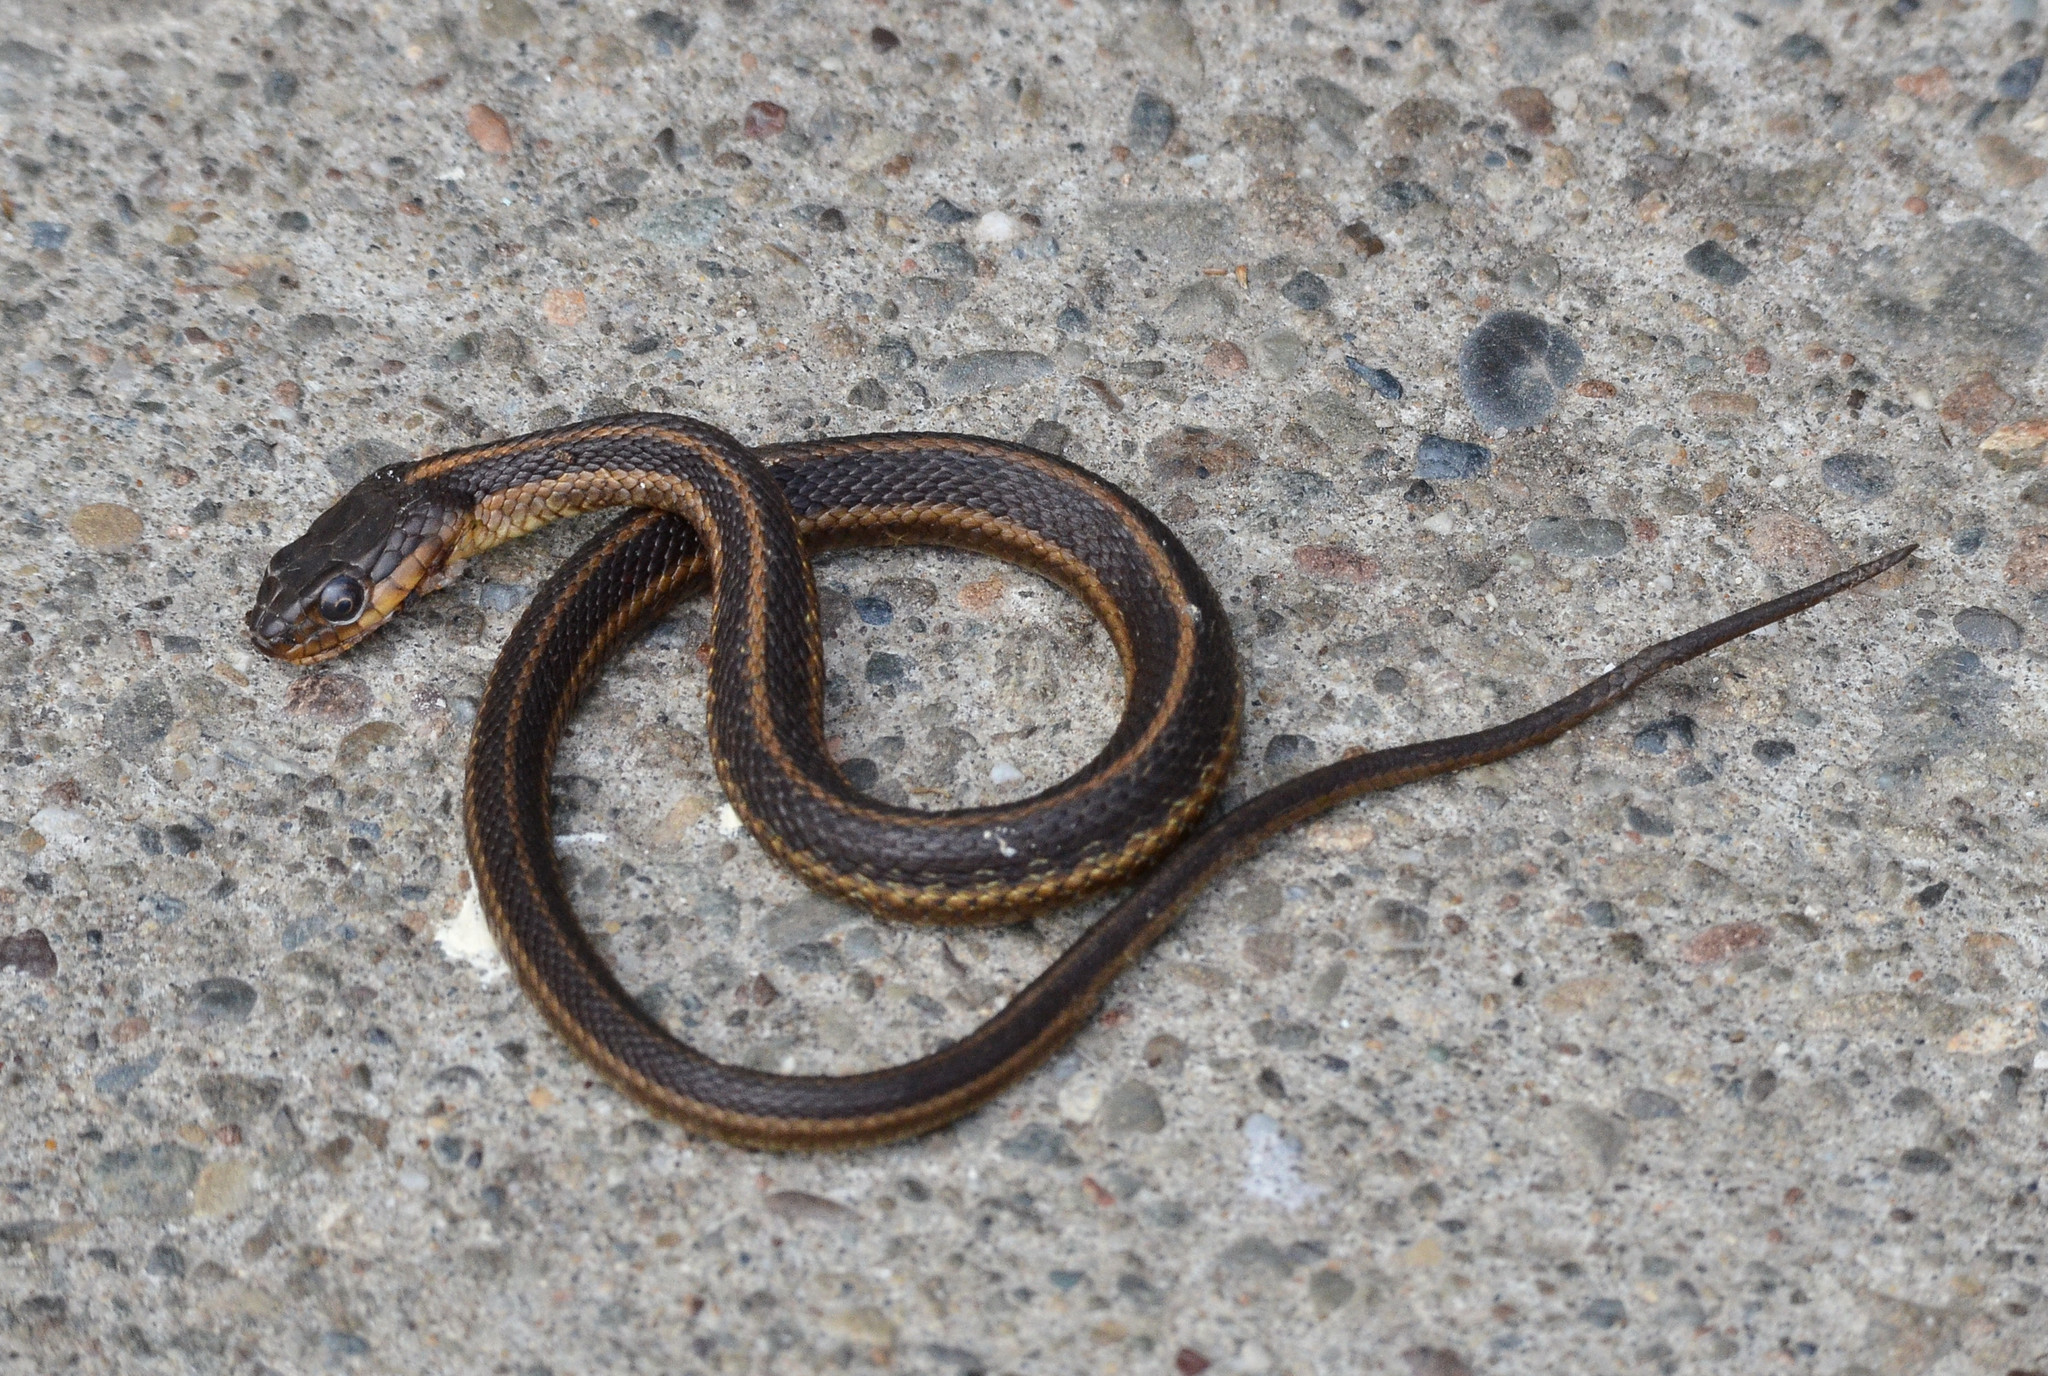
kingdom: Animalia
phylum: Chordata
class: Squamata
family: Colubridae
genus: Thamnophis
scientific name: Thamnophis atratus
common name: Pacific coast aquatic garter snake
